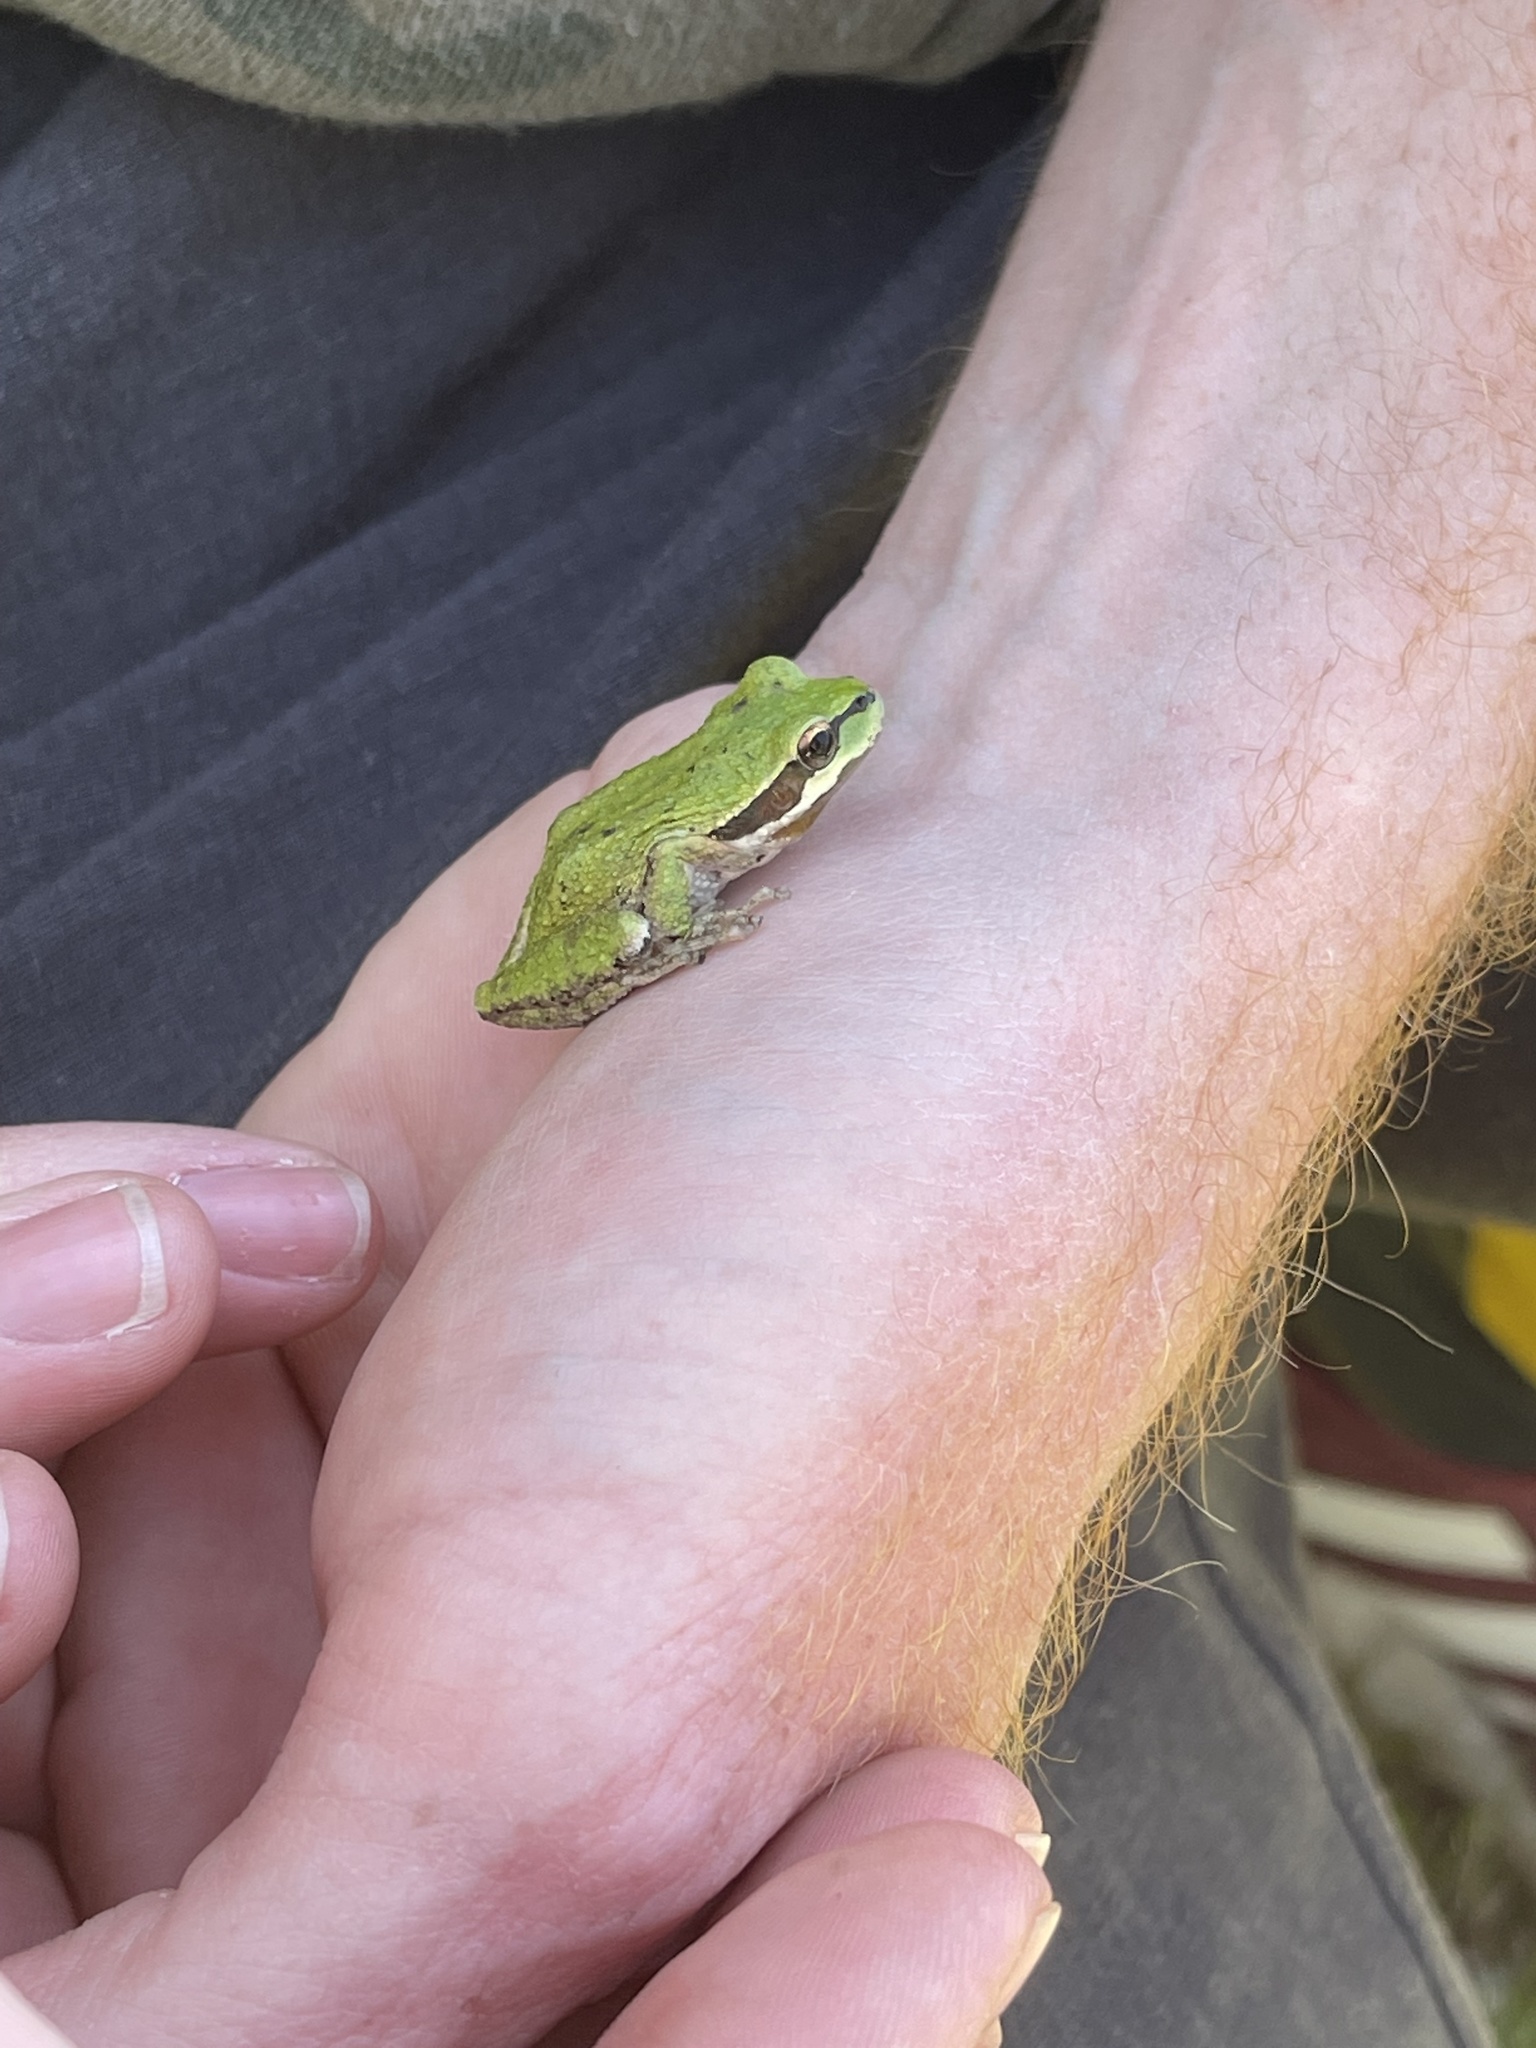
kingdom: Animalia
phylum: Chordata
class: Amphibia
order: Anura
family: Hylidae
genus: Pseudacris
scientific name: Pseudacris regilla
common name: Pacific chorus frog
